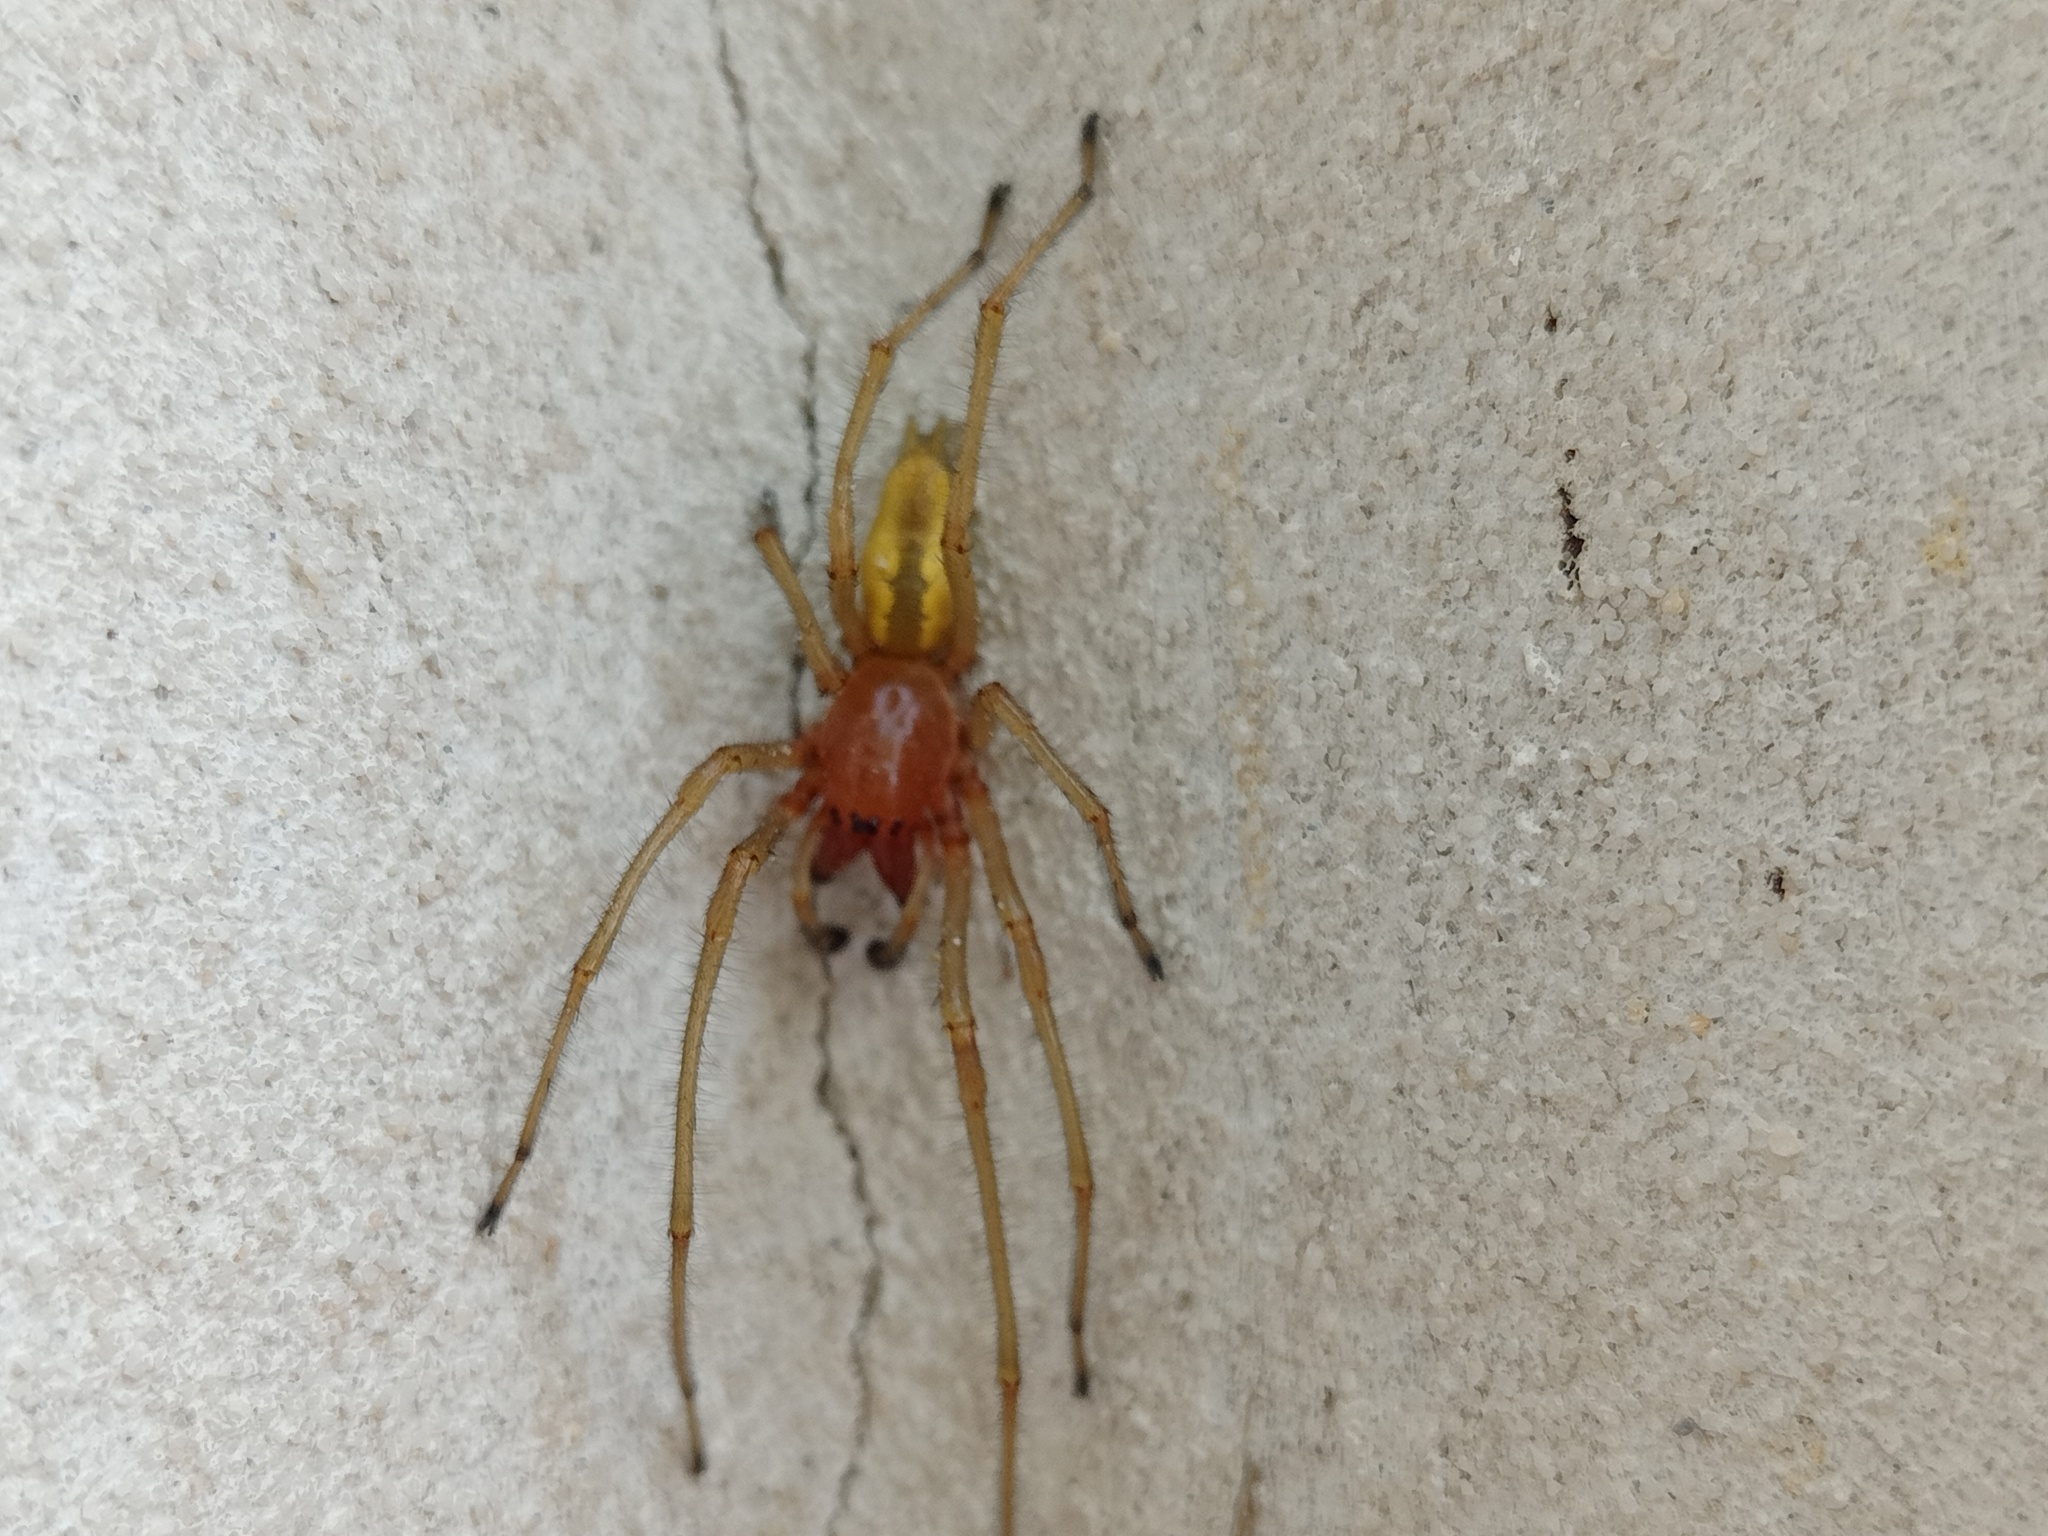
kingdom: Animalia
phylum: Arthropoda
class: Arachnida
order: Araneae
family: Cheiracanthiidae
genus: Cheiracanthium
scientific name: Cheiracanthium punctorium
